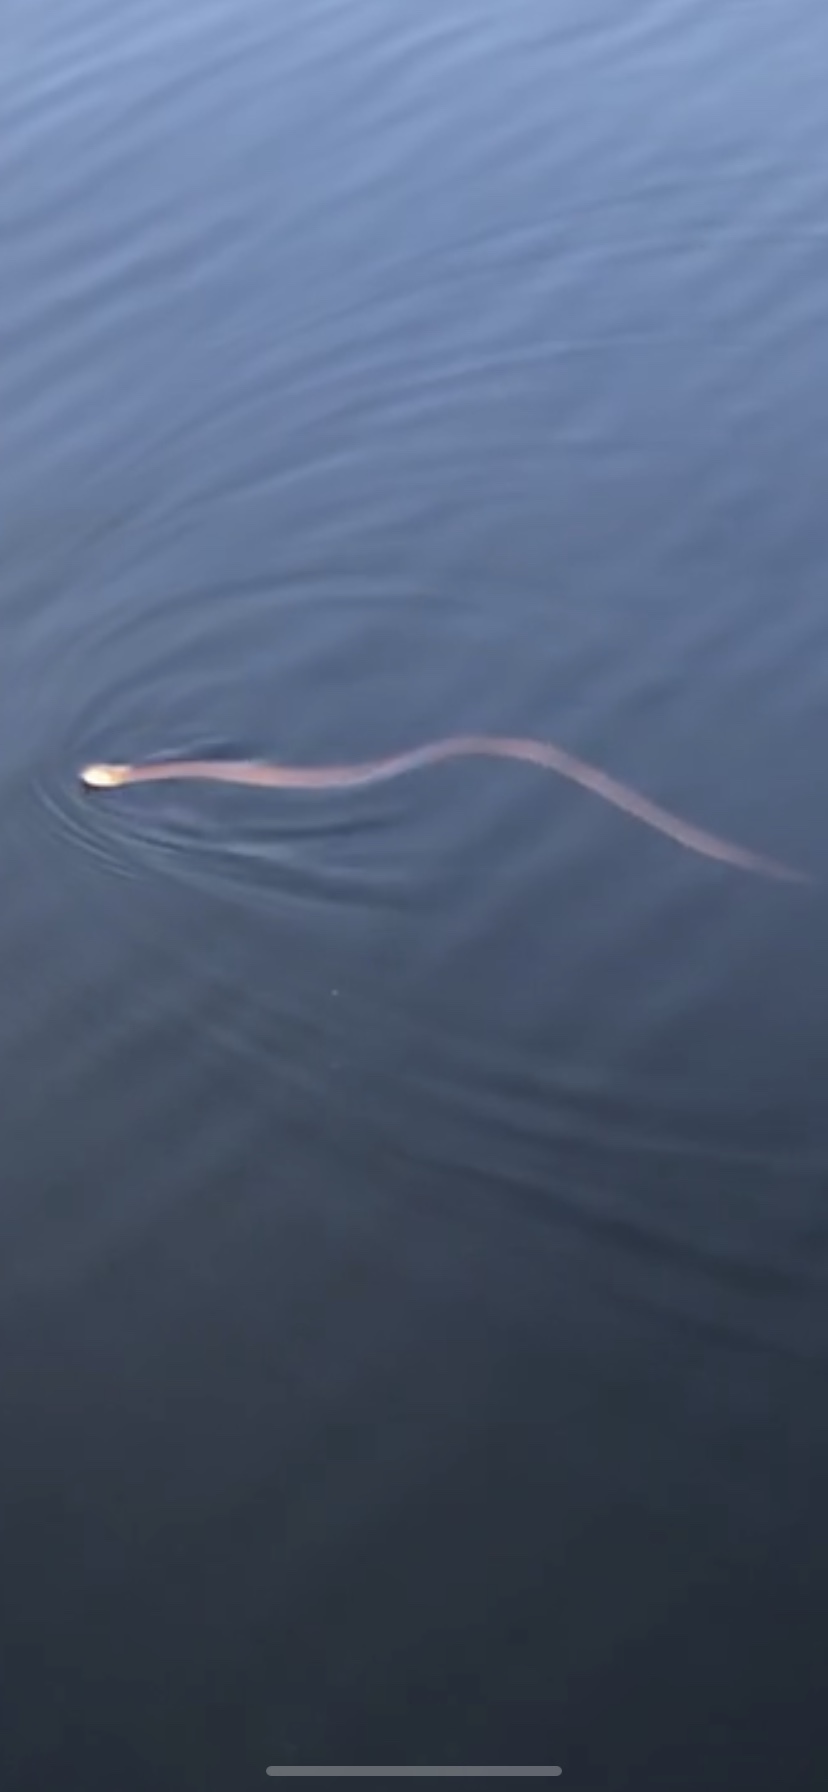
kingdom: Animalia
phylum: Chordata
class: Squamata
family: Colubridae
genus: Nerodia
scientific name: Nerodia sipedon
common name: Northern water snake
